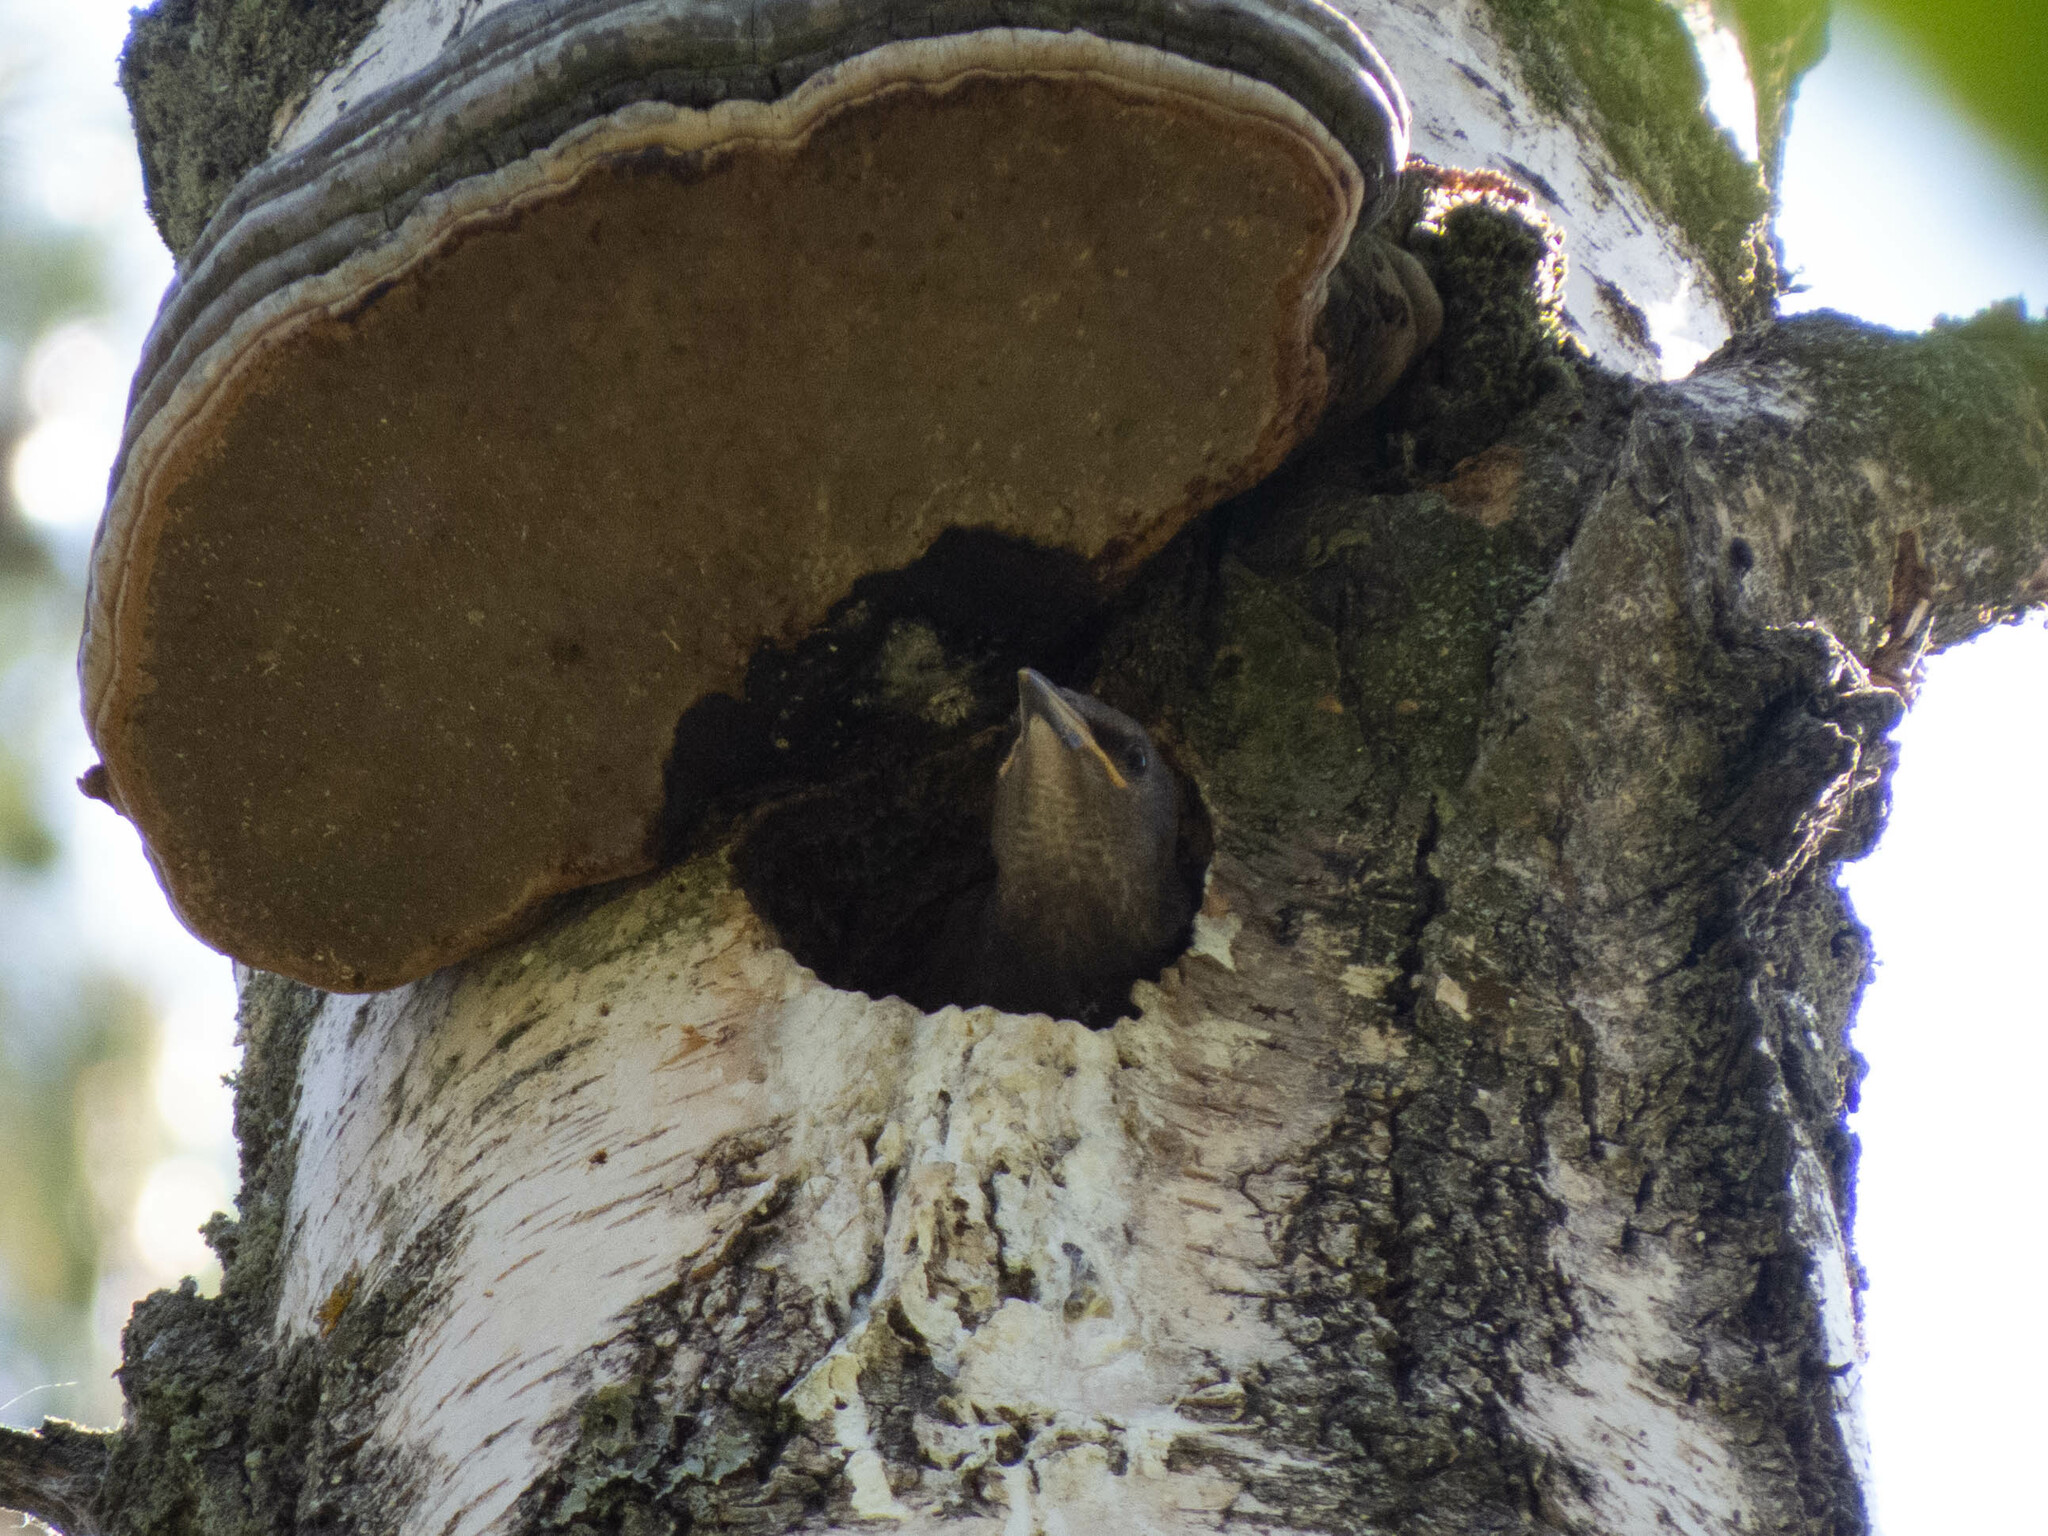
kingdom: Animalia
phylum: Chordata
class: Aves
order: Passeriformes
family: Sturnidae
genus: Sturnus
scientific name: Sturnus vulgaris
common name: Common starling
